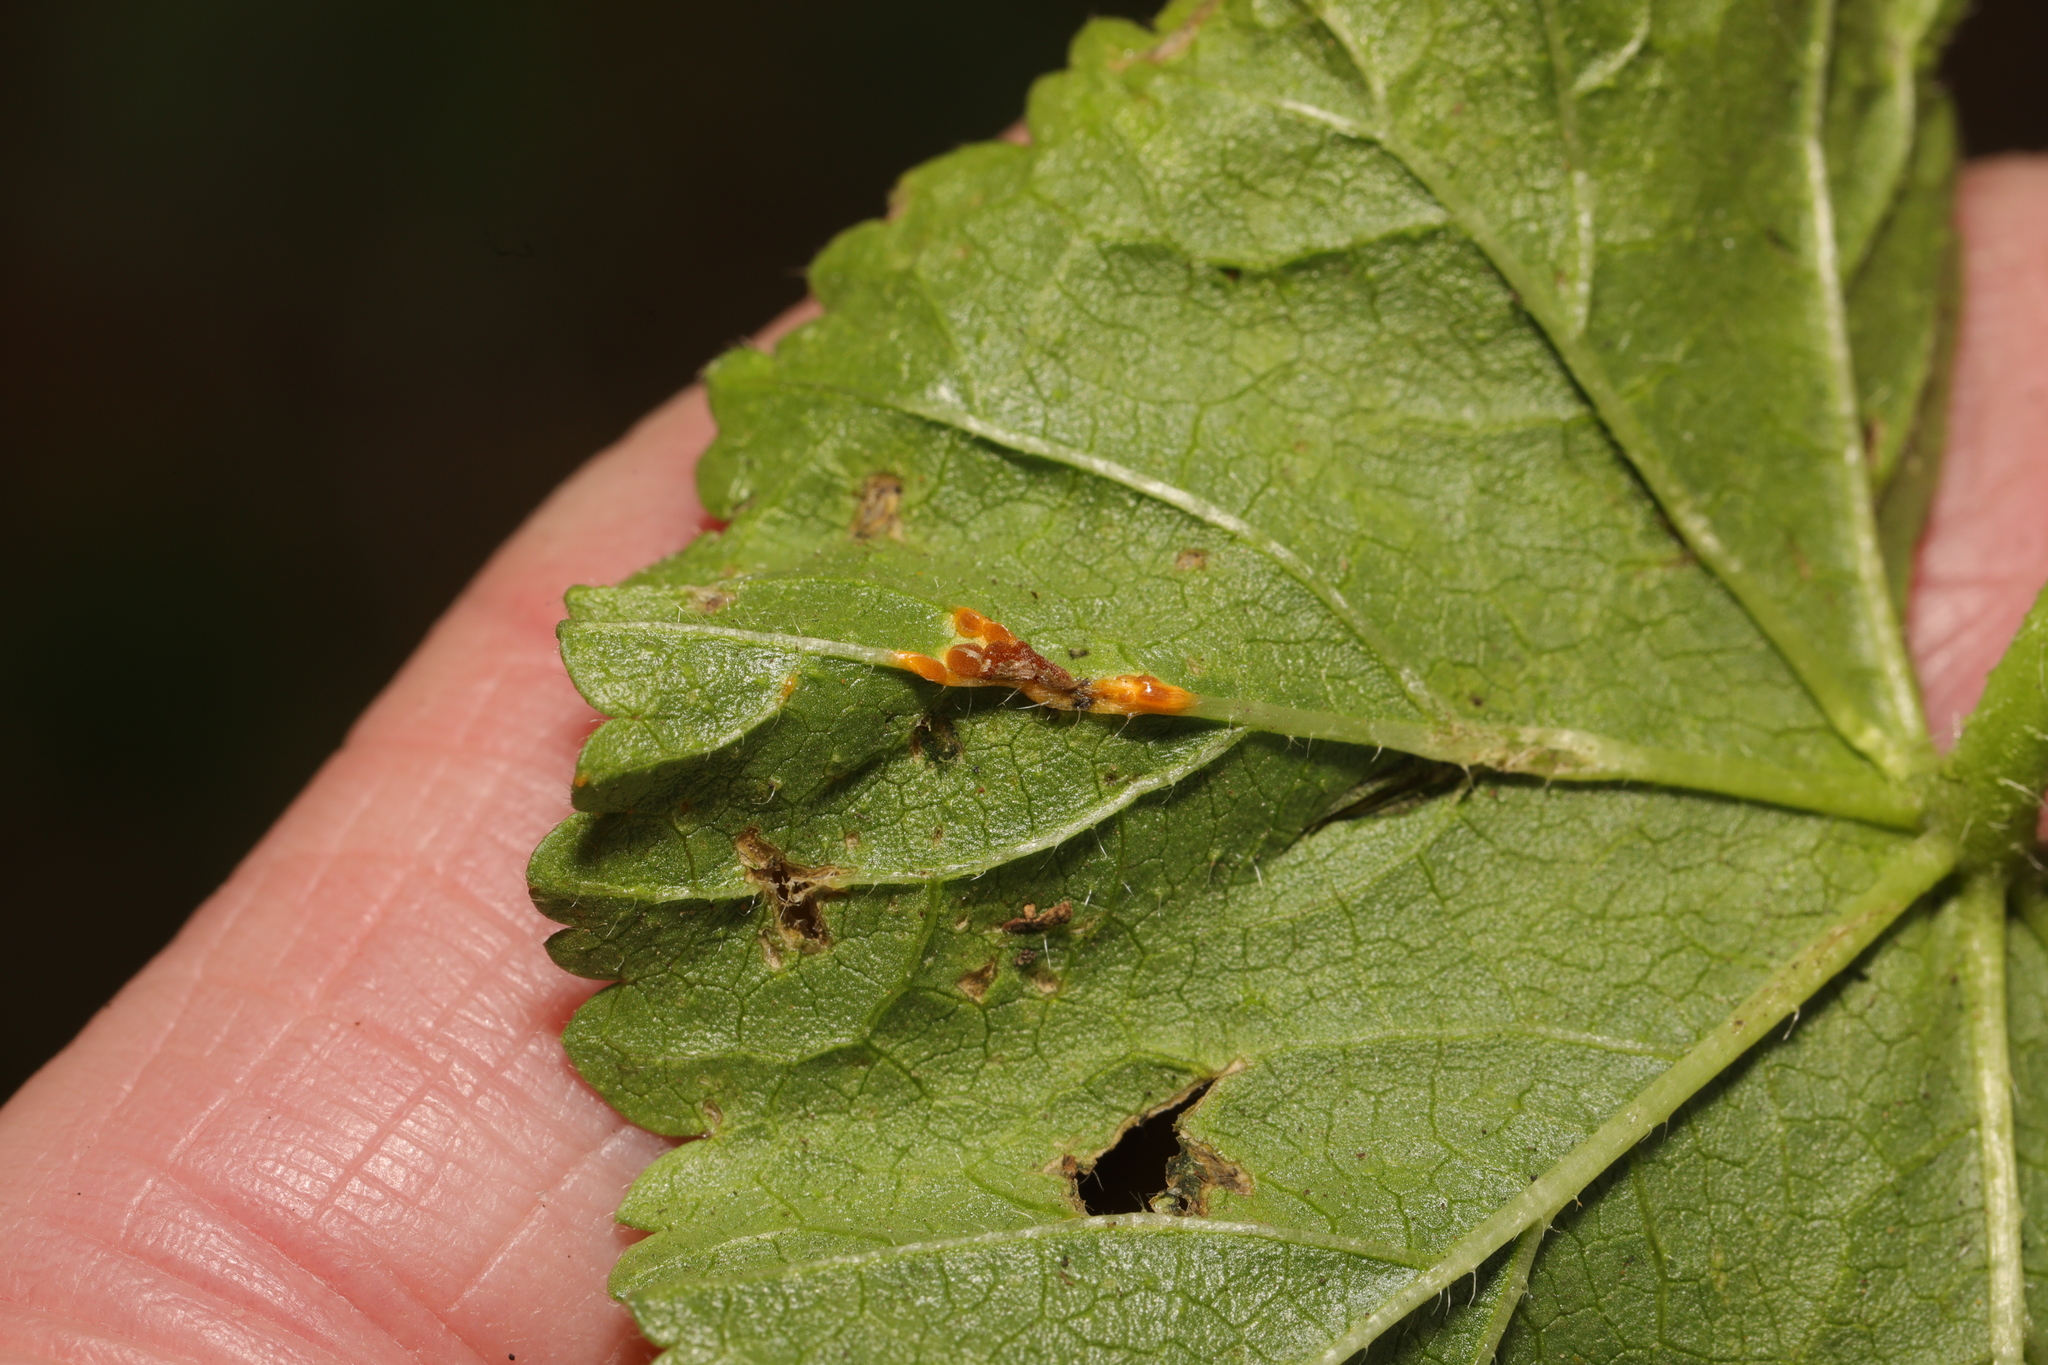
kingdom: Fungi
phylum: Basidiomycota
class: Pucciniomycetes
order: Pucciniales
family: Pucciniaceae
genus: Puccinia
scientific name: Puccinia malvacearum
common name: Hollyhock rust
